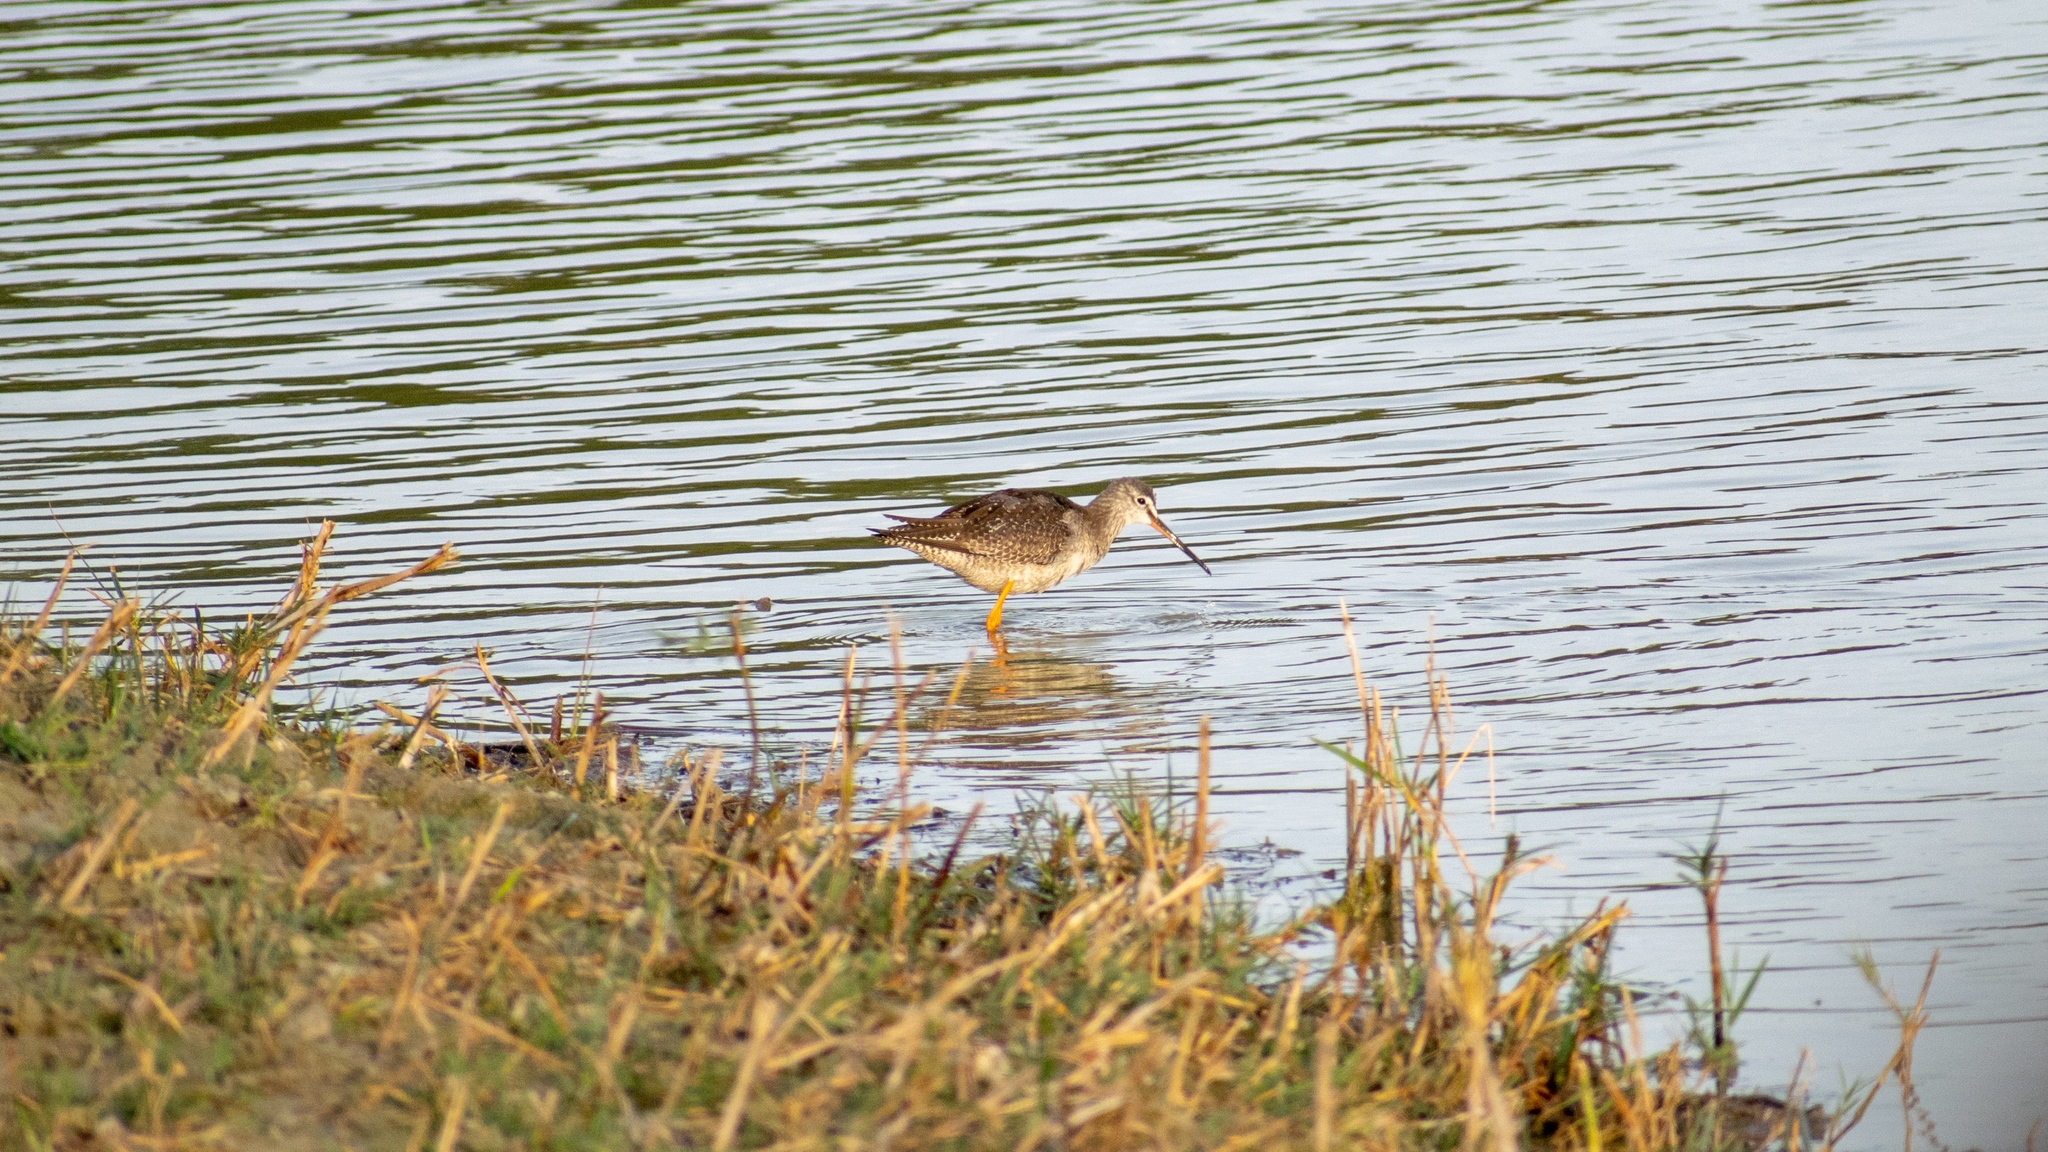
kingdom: Animalia
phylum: Chordata
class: Aves
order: Charadriiformes
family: Scolopacidae
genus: Tringa
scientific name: Tringa erythropus
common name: Spotted redshank
